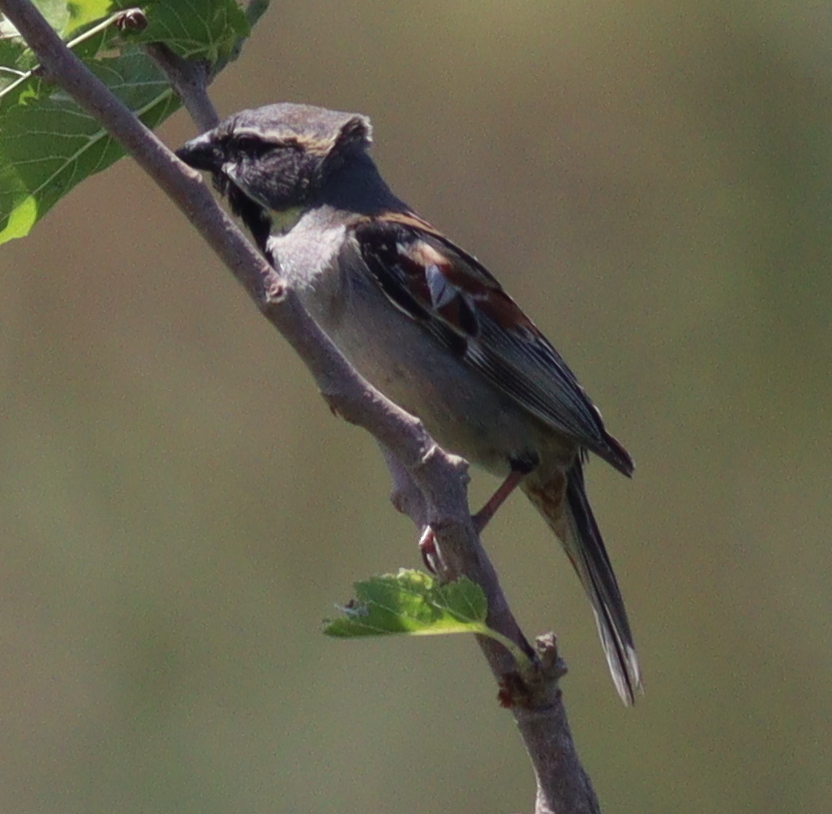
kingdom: Animalia
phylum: Chordata
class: Aves
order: Passeriformes
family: Passeridae
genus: Passer
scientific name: Passer moabiticus
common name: Dead sea sparrow
